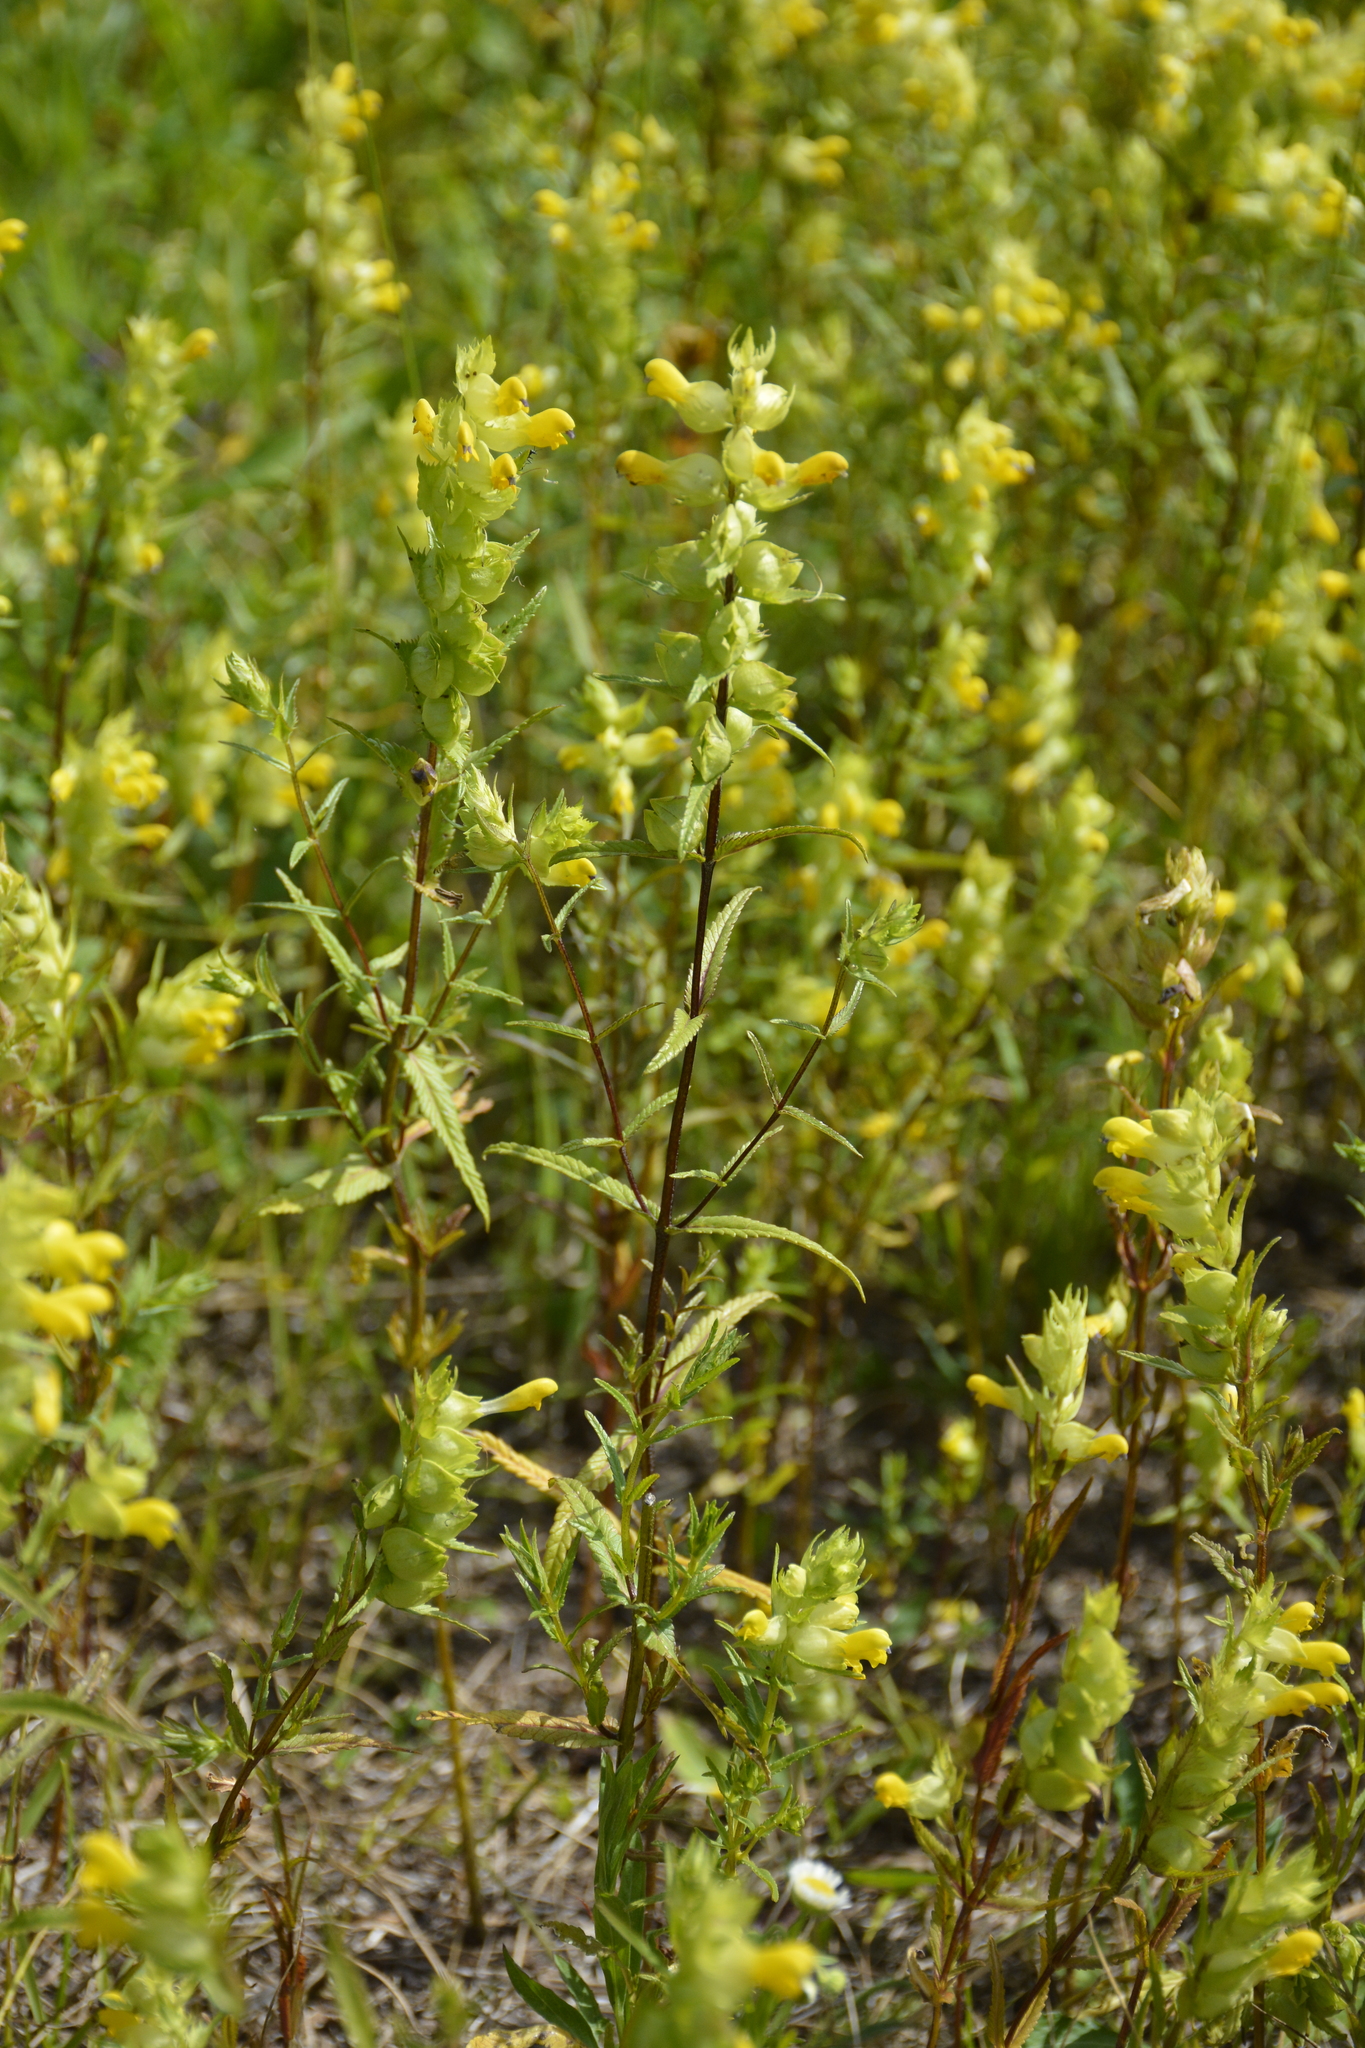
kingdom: Plantae
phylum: Tracheophyta
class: Magnoliopsida
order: Lamiales
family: Orobanchaceae
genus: Rhinanthus
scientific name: Rhinanthus serotinus
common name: Late-flowering yellow rattle
